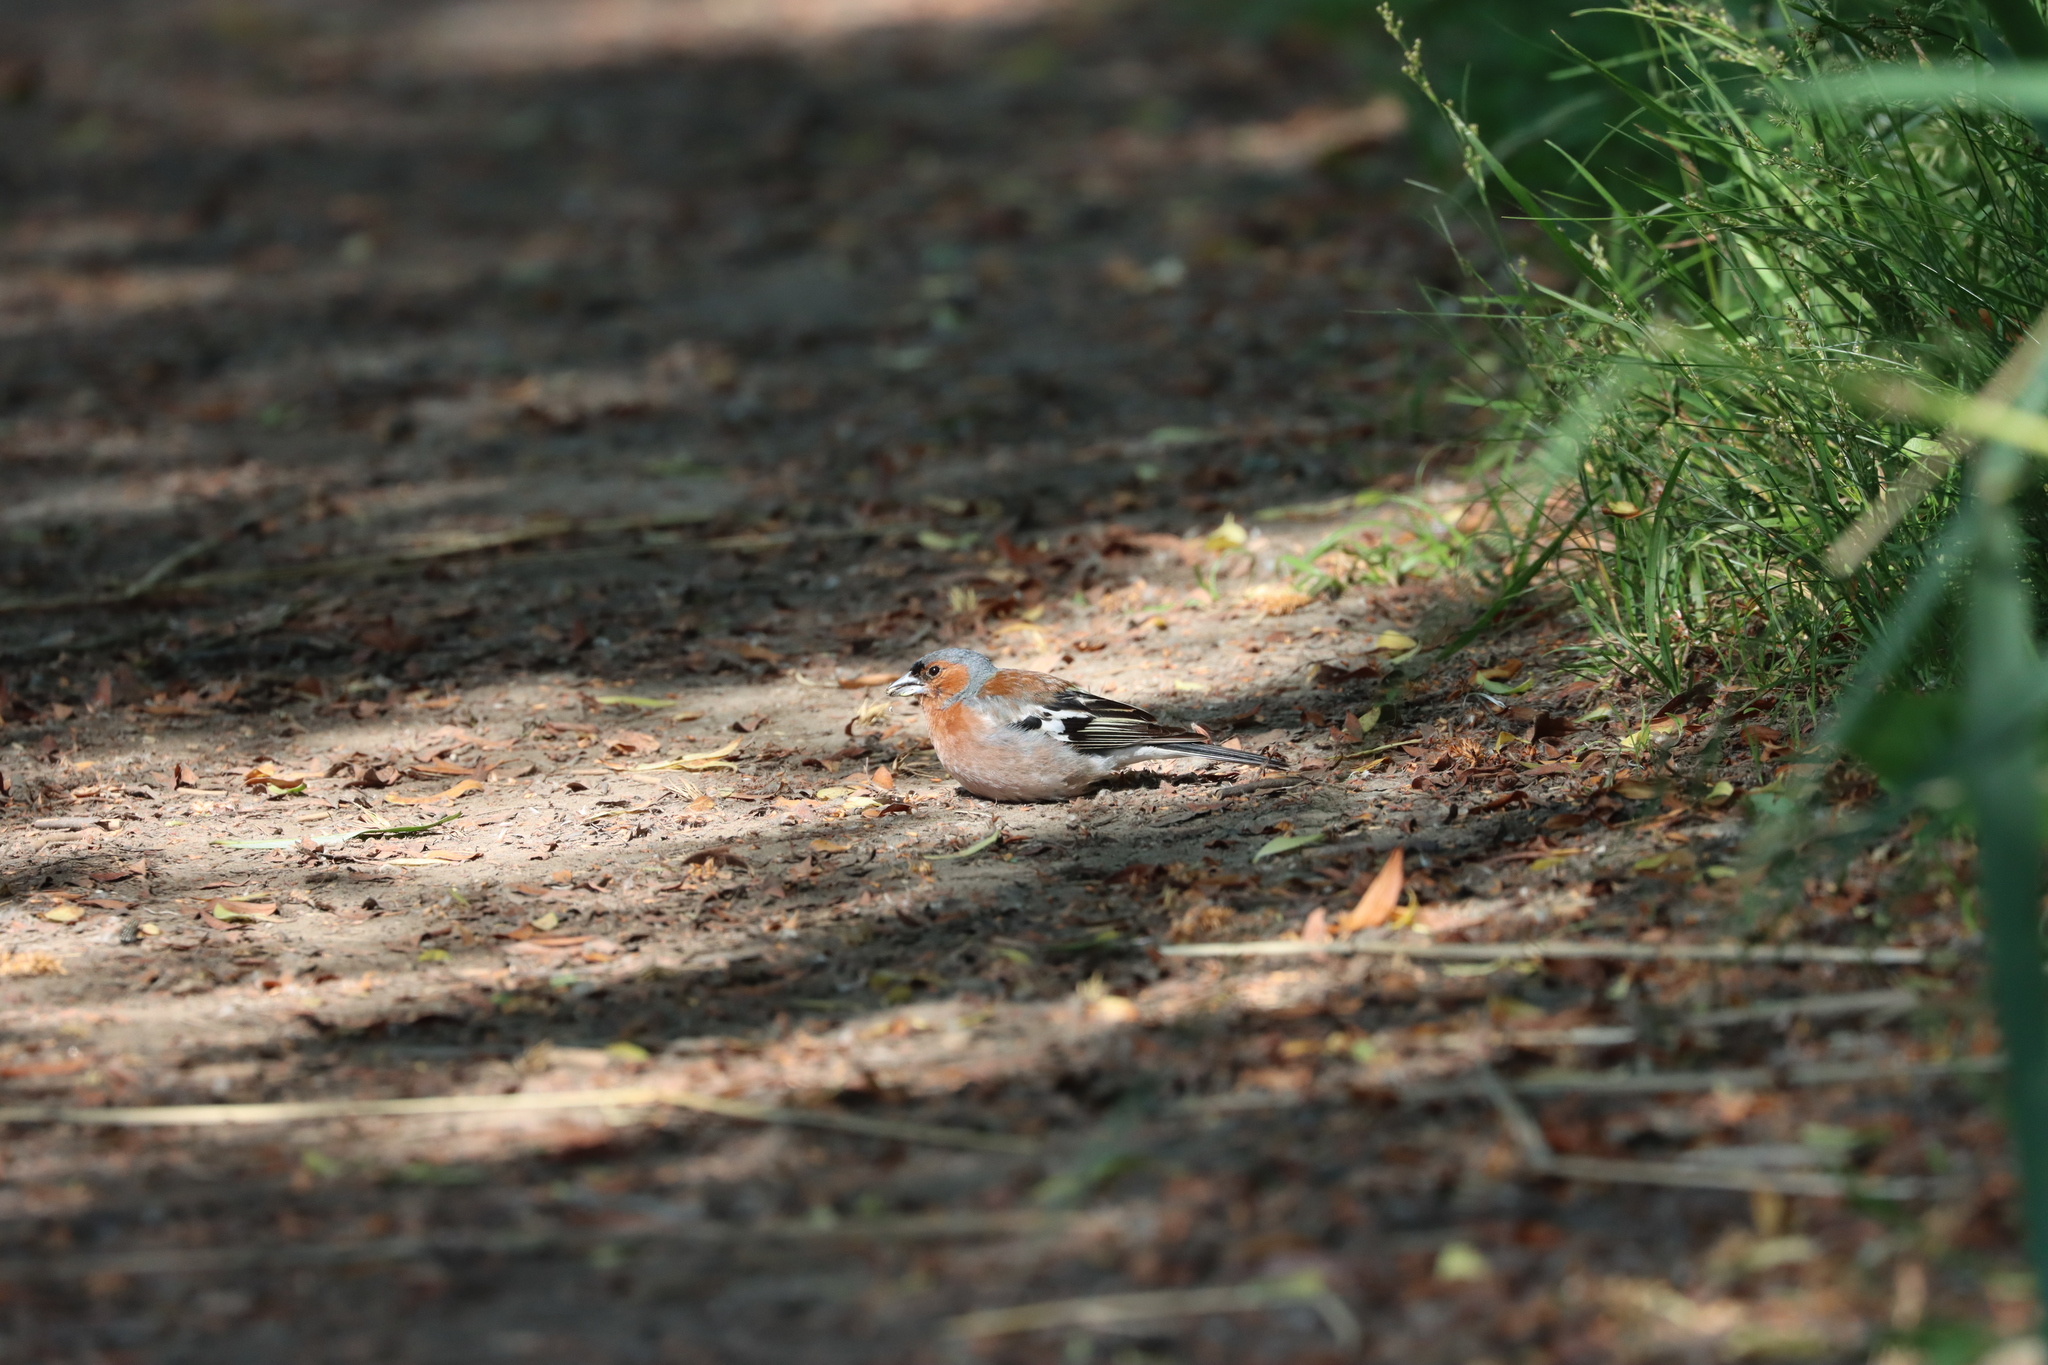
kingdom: Animalia
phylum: Chordata
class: Aves
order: Passeriformes
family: Fringillidae
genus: Fringilla
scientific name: Fringilla coelebs
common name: Common chaffinch
